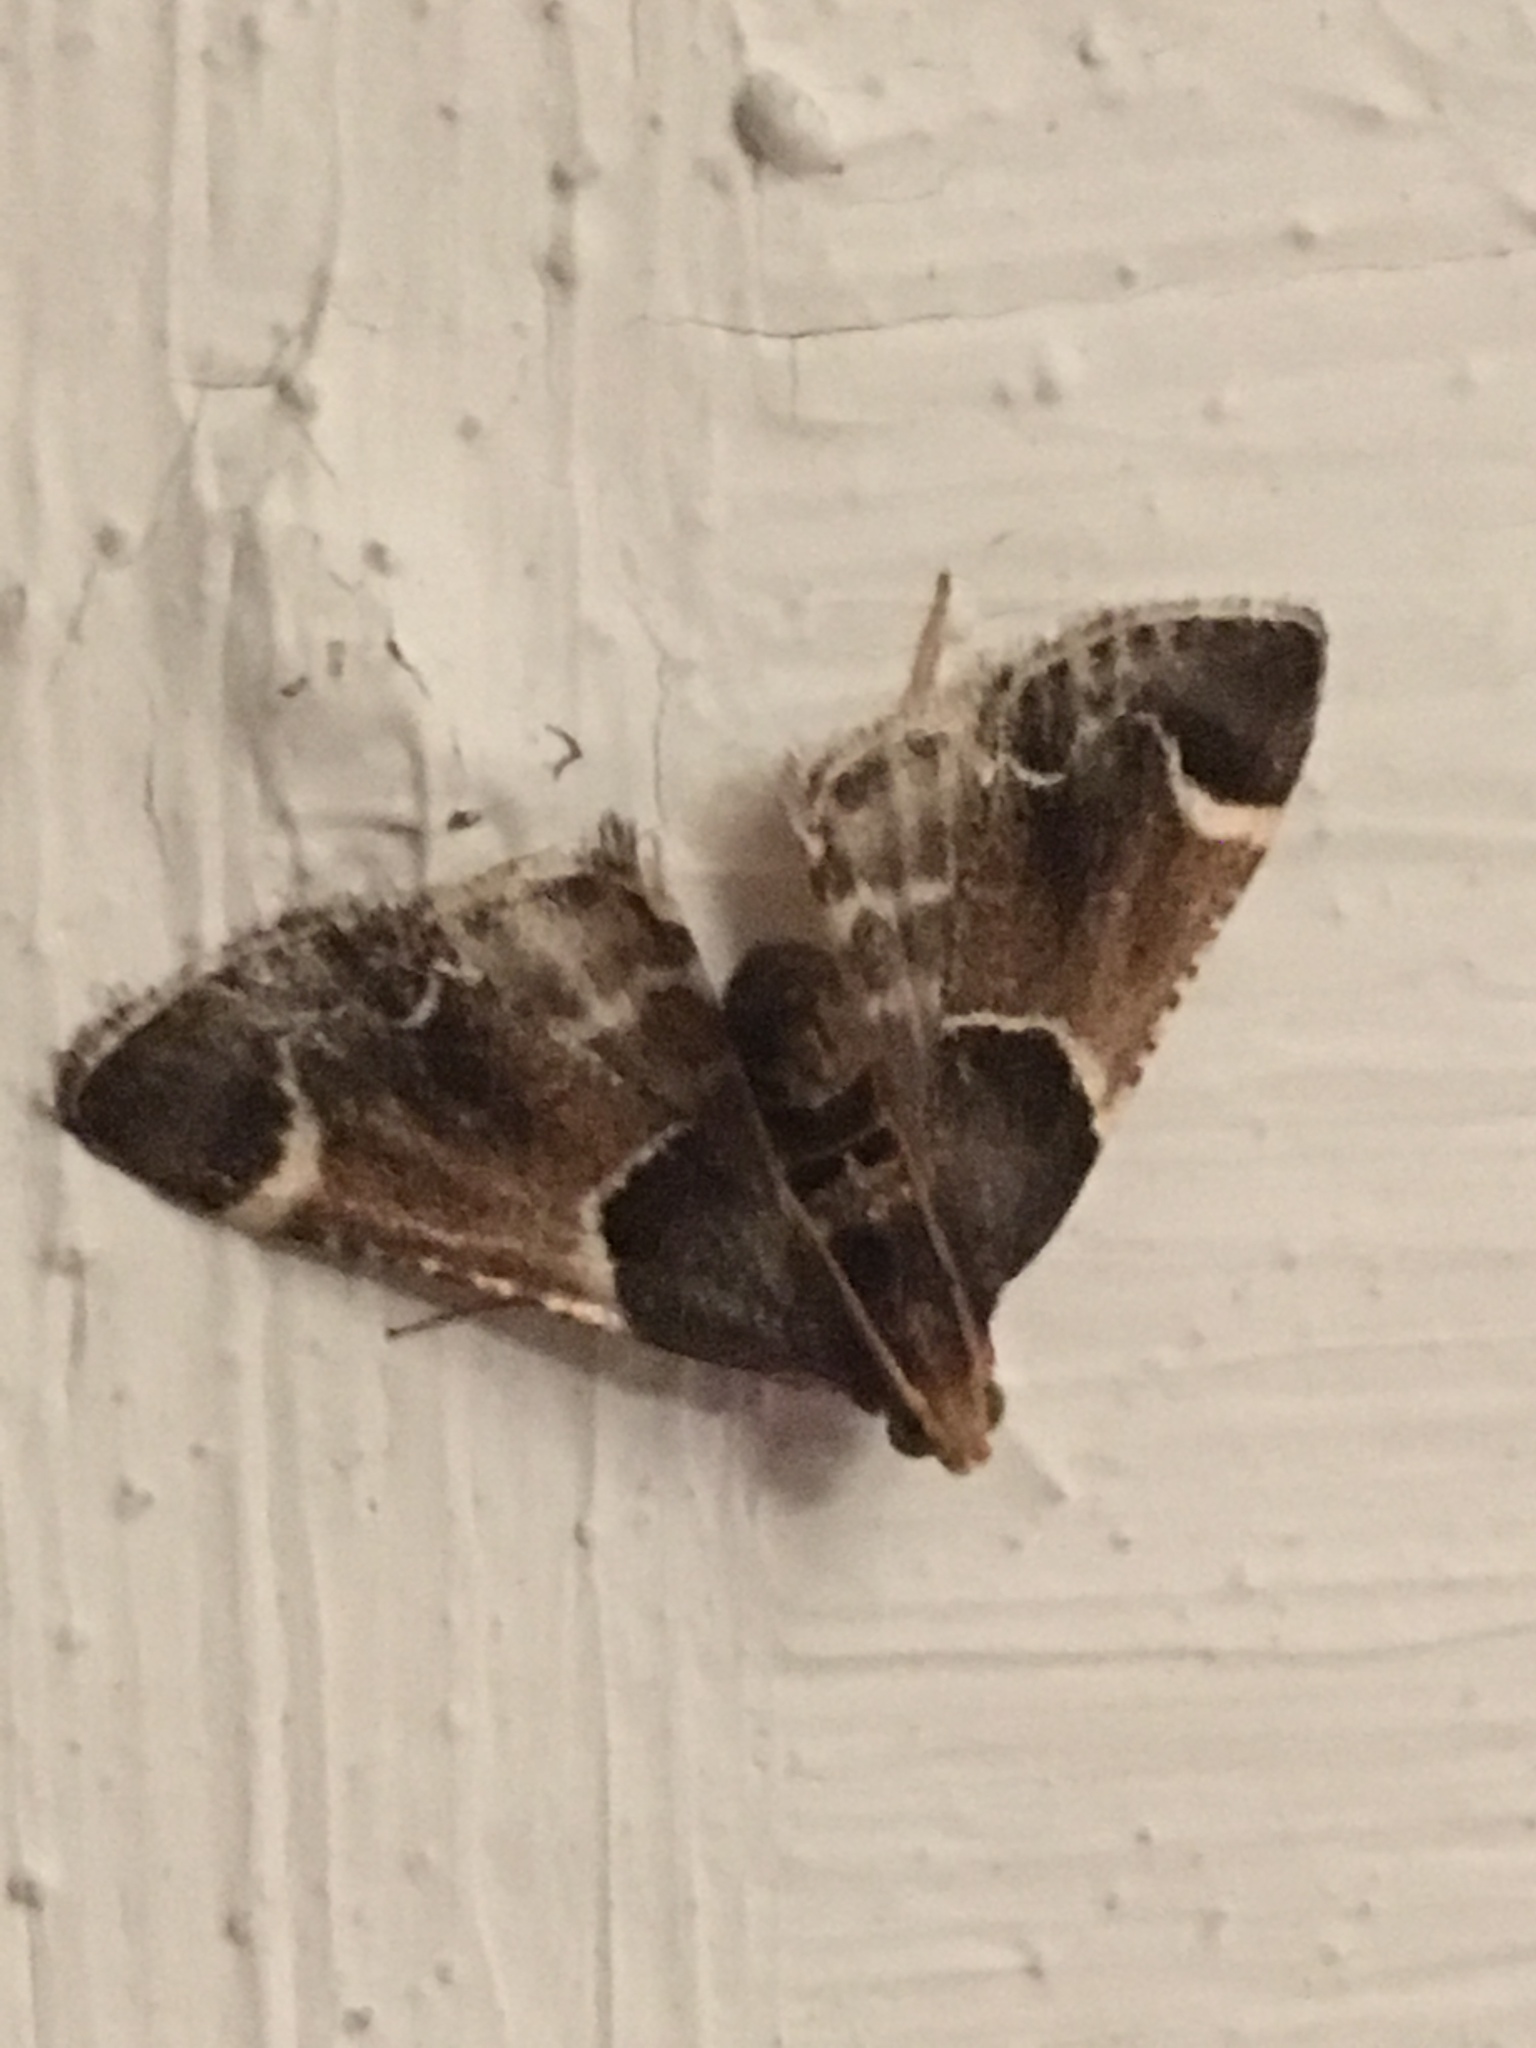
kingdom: Animalia
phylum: Arthropoda
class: Insecta
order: Lepidoptera
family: Pyralidae
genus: Pyralis
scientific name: Pyralis farinalis
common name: Meal moth
